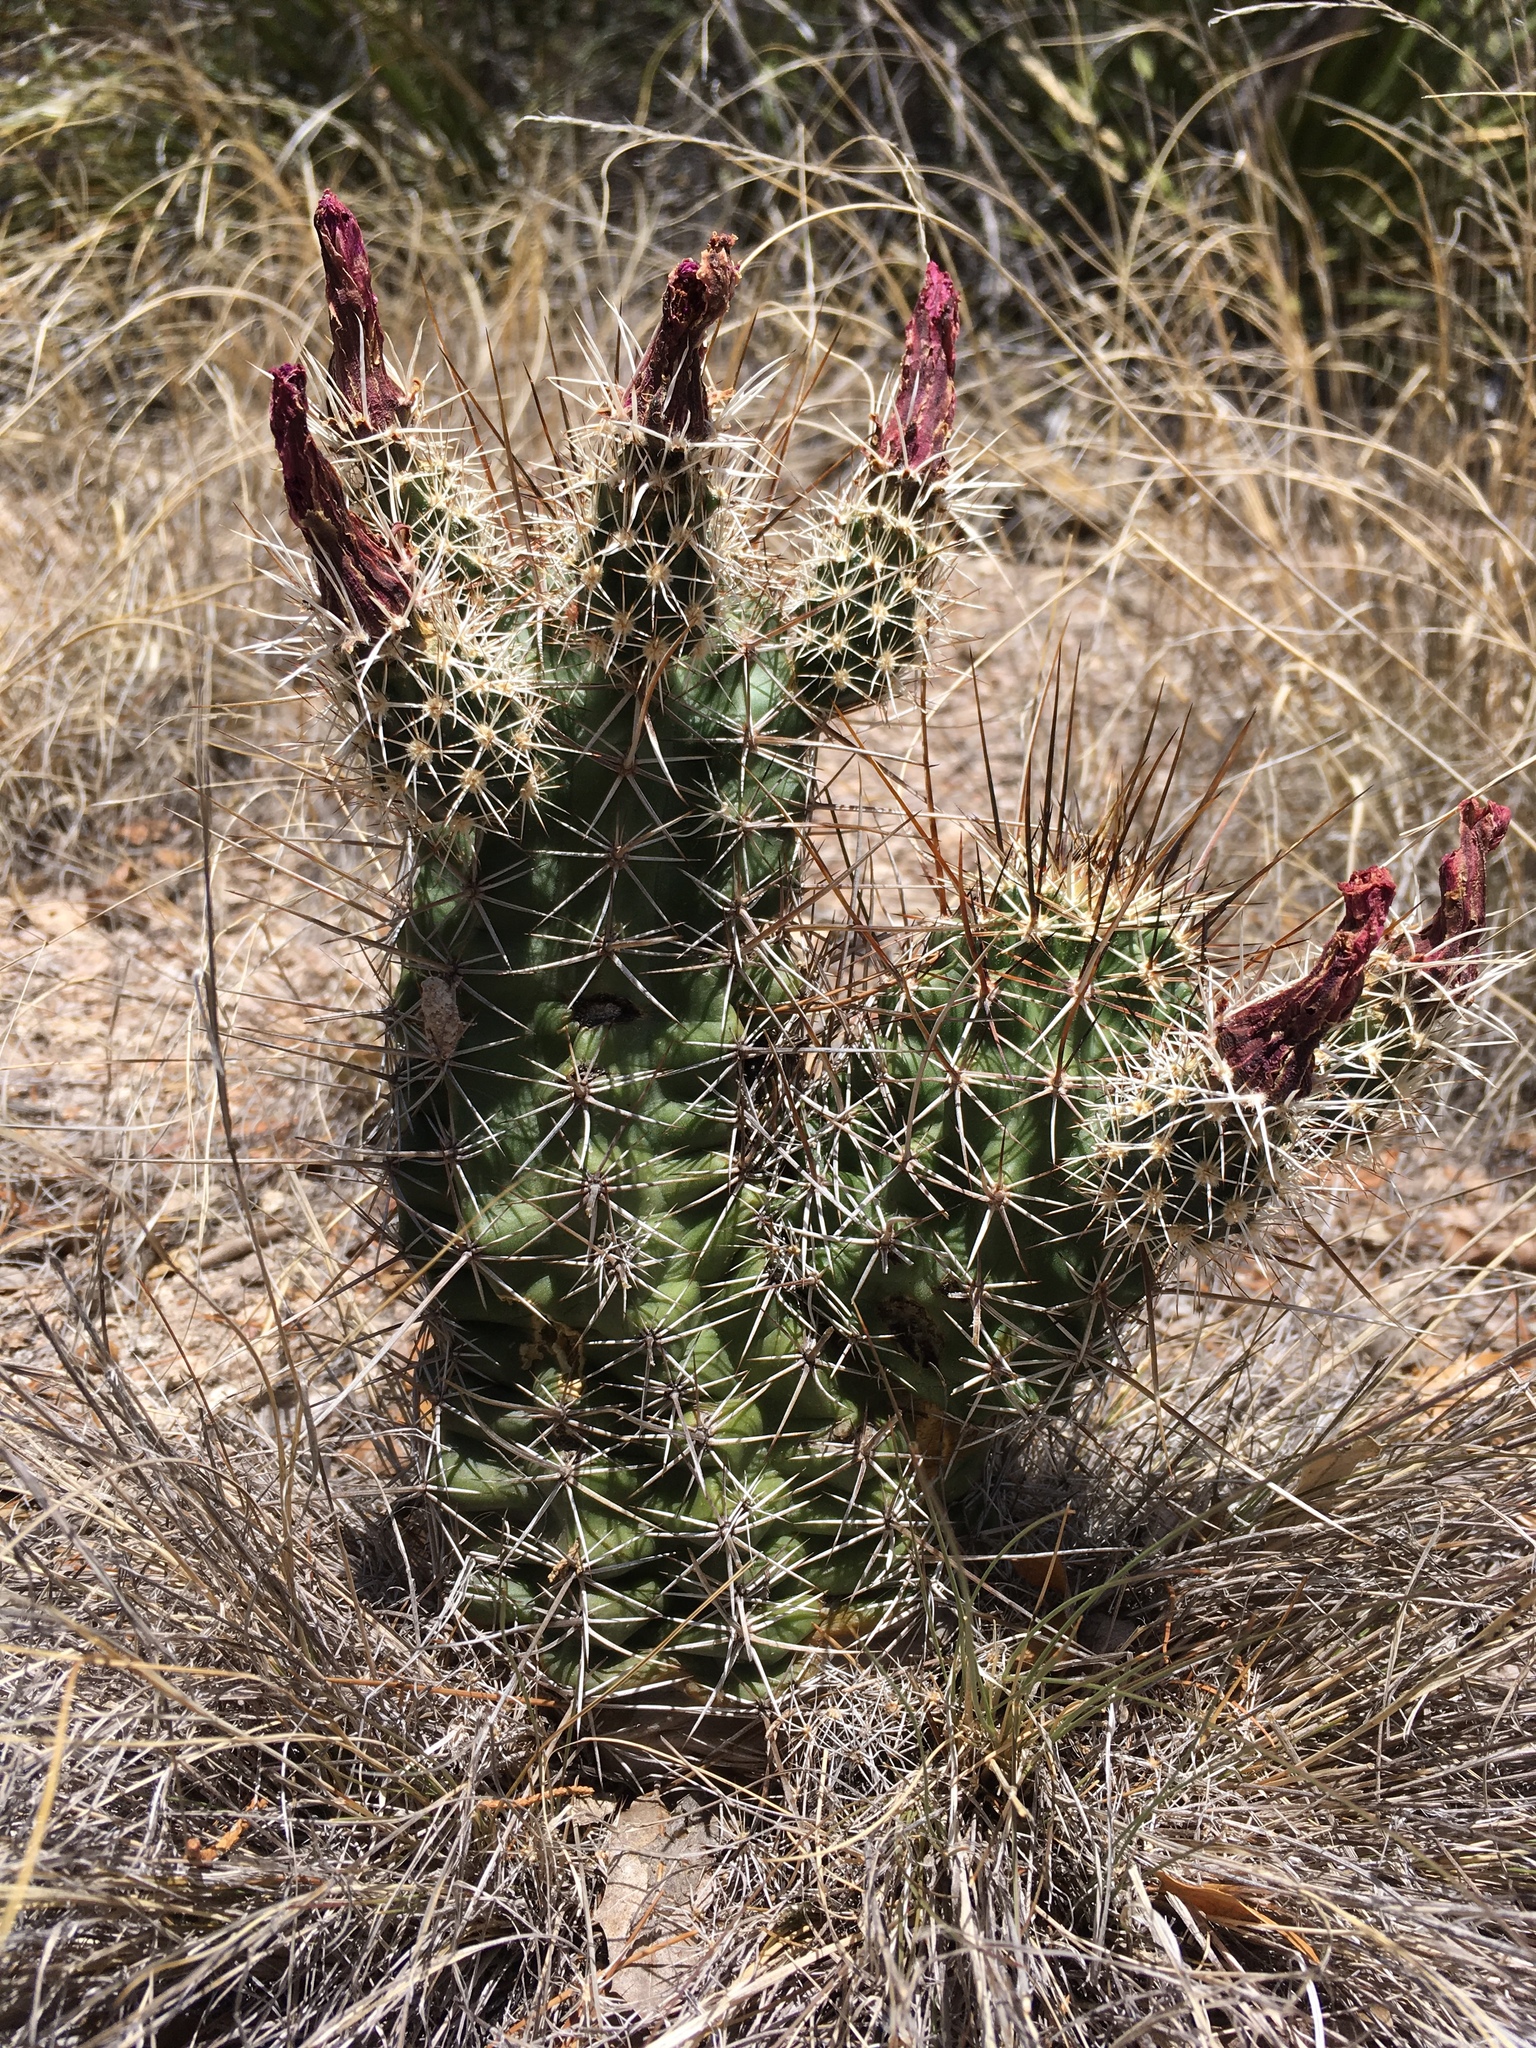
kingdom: Plantae
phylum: Tracheophyta
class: Magnoliopsida
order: Caryophyllales
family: Cactaceae
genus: Echinocereus
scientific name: Echinocereus fendleri
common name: Fendler's hedgehog cactus
